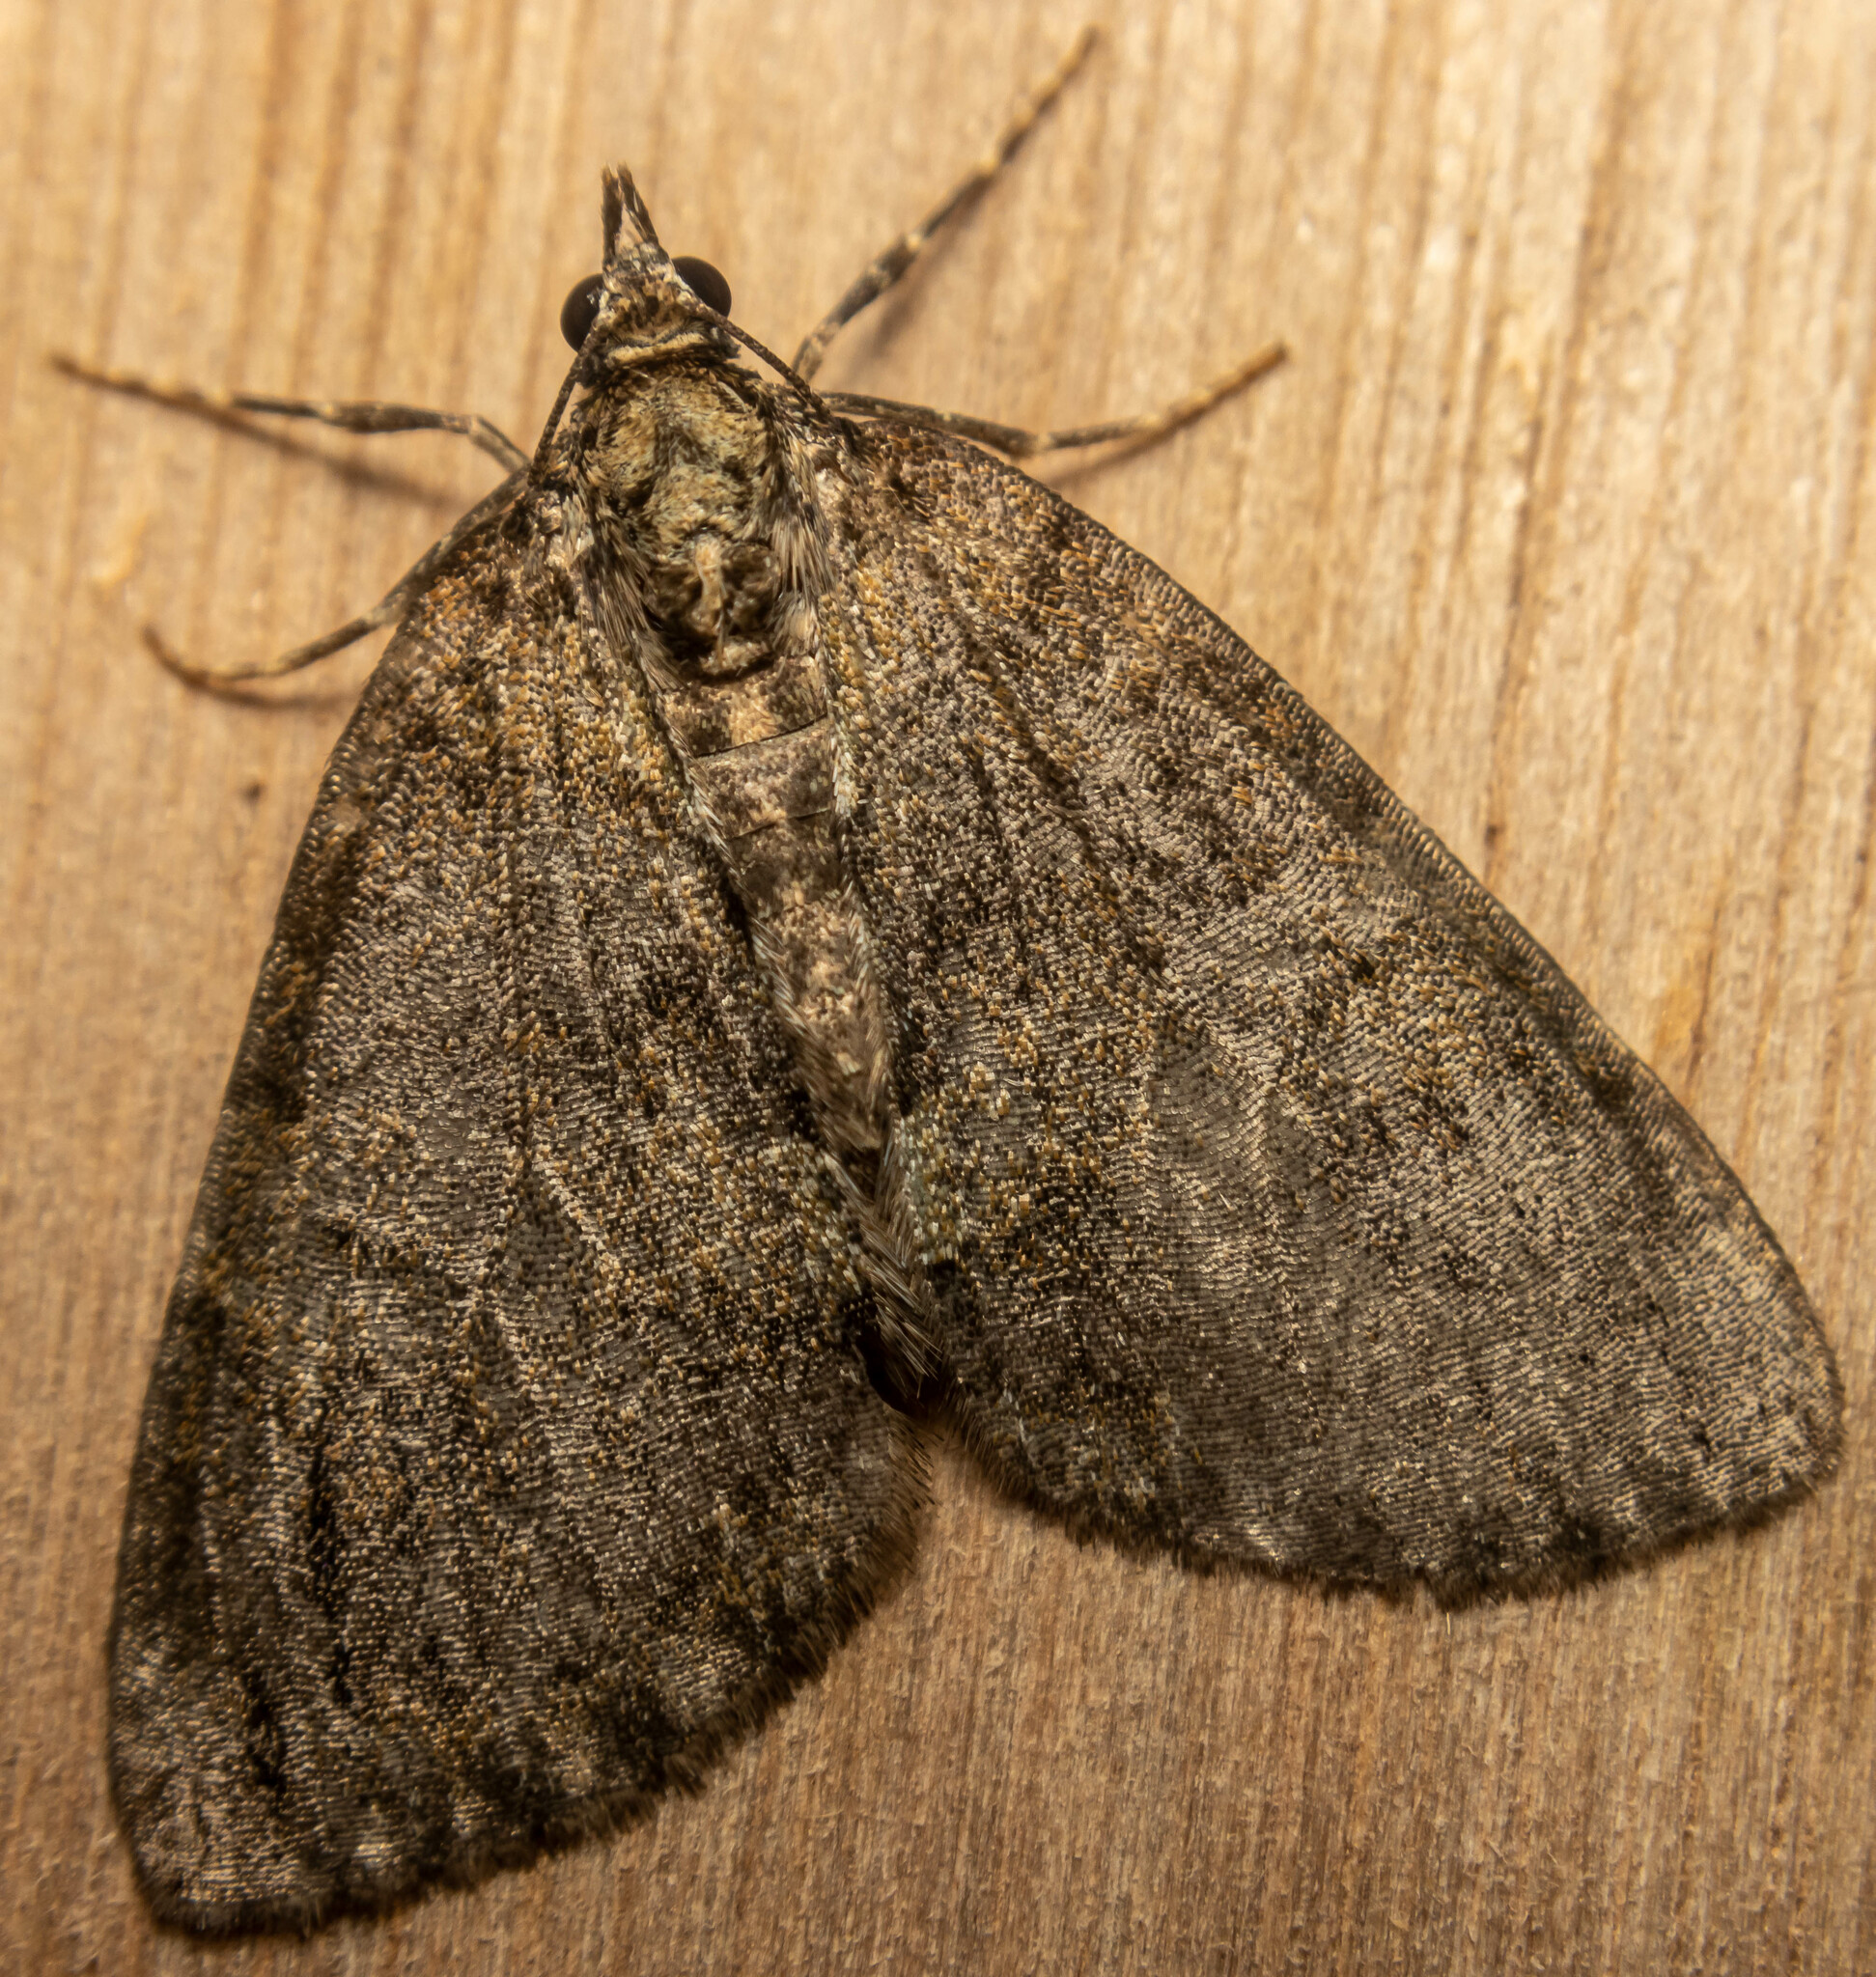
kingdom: Animalia
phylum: Arthropoda
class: Insecta
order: Lepidoptera
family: Geometridae
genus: Hydriomena
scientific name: Hydriomena impluviata
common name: May highflyer
